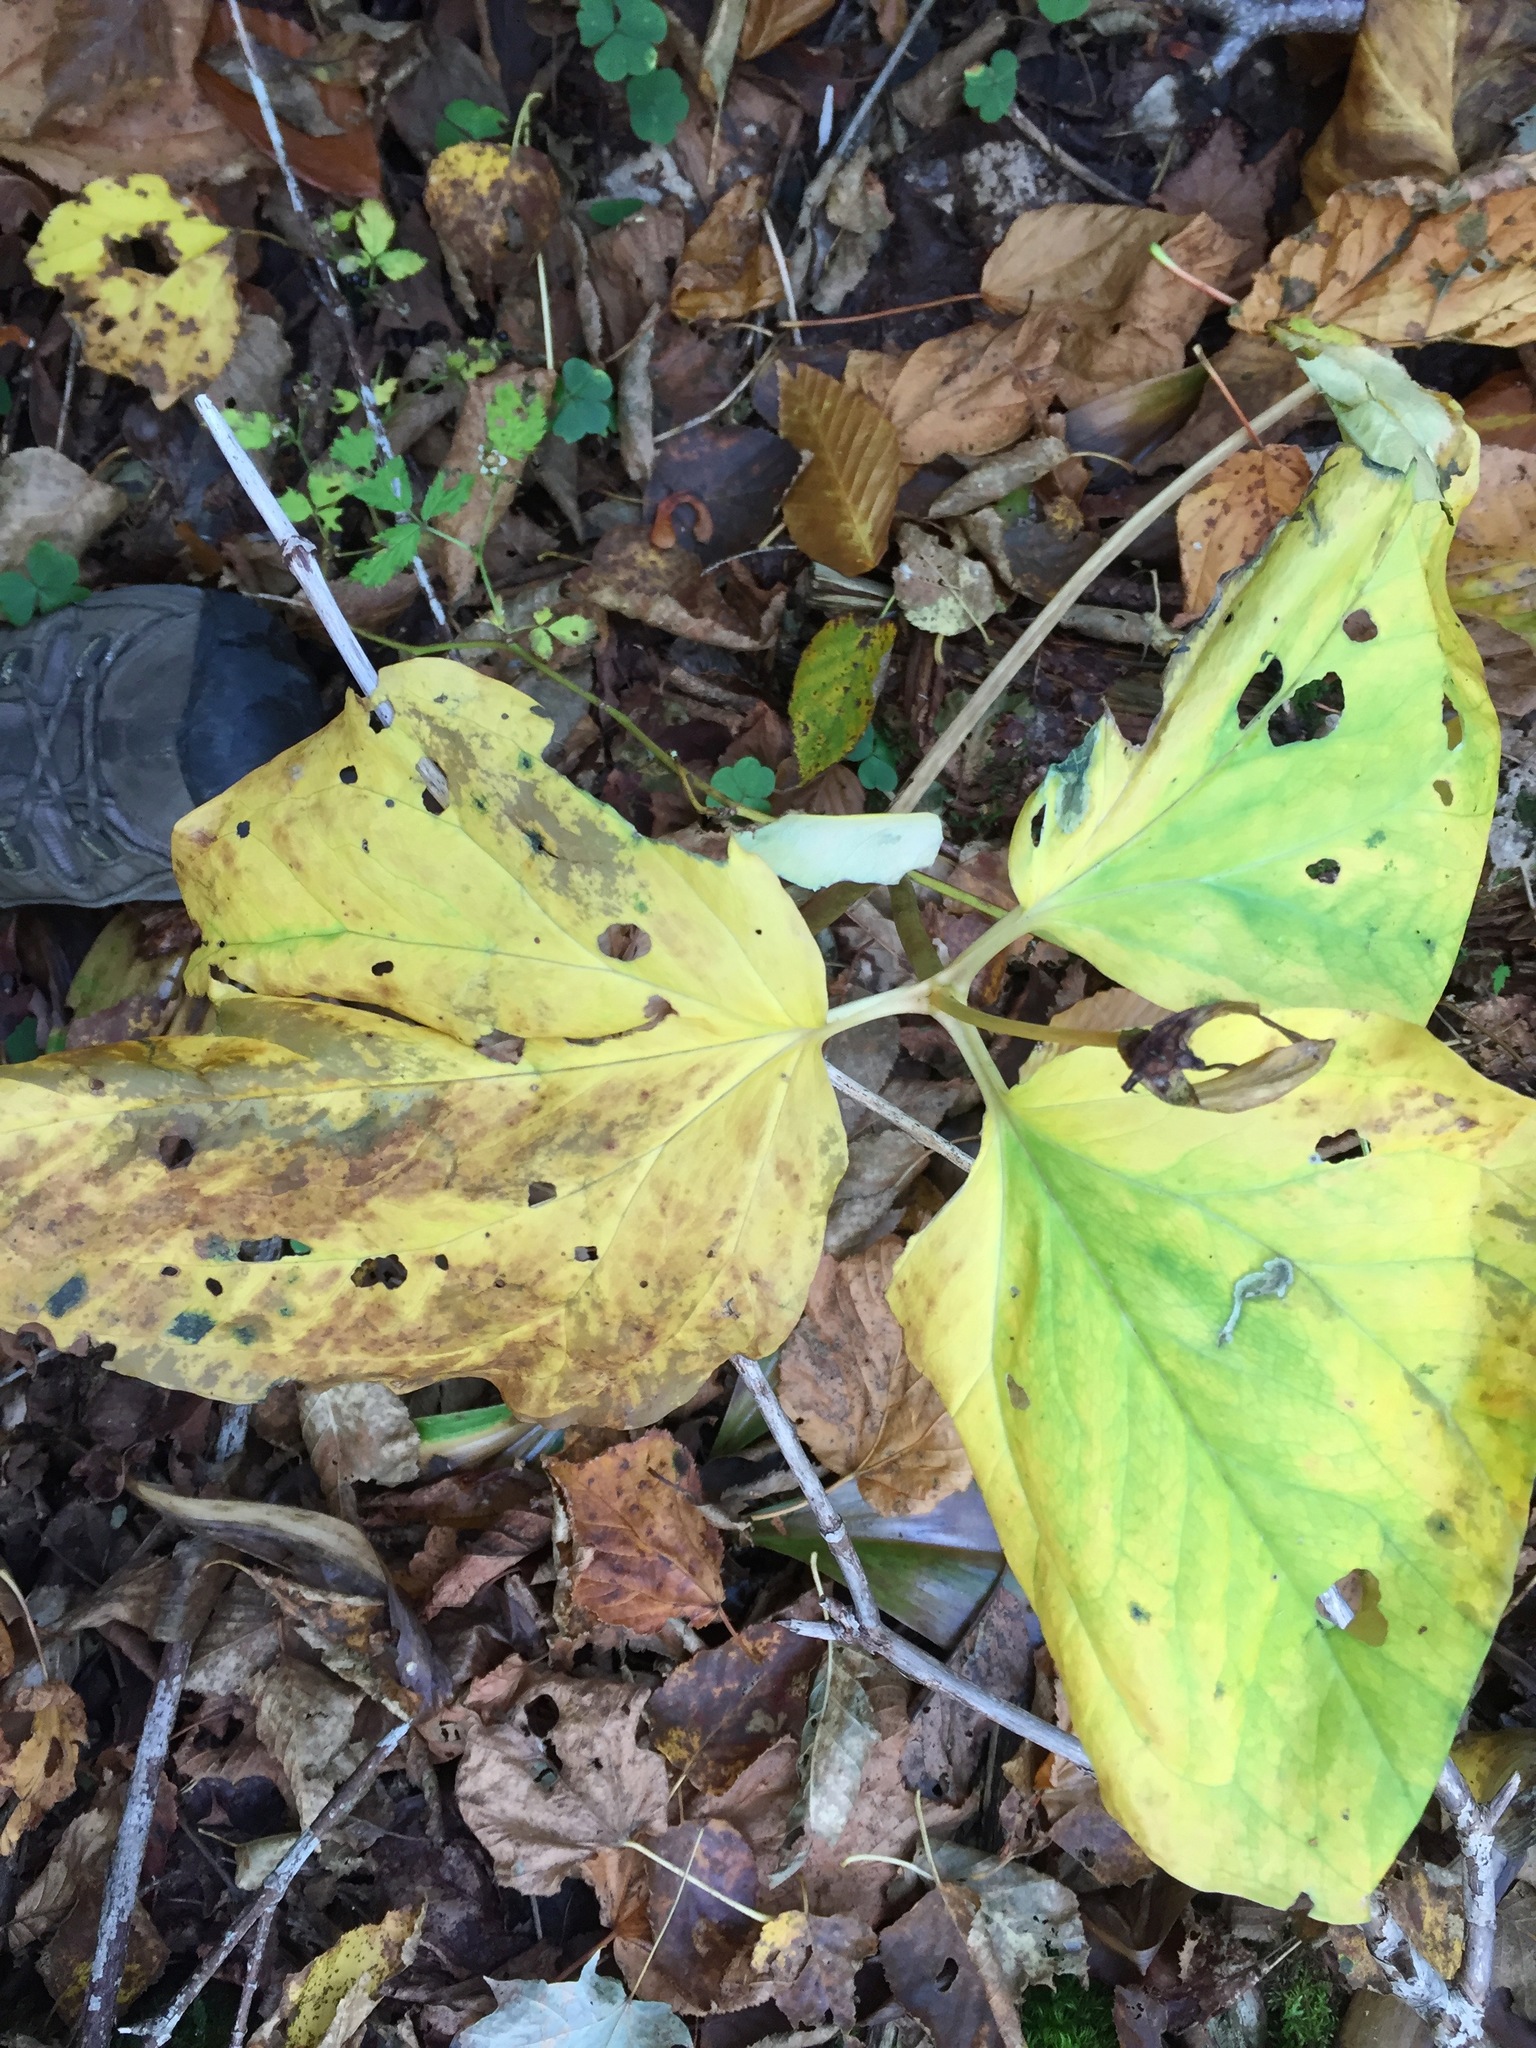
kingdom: Plantae
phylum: Tracheophyta
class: Liliopsida
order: Liliales
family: Melanthiaceae
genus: Trillium
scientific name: Trillium undulatum
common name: Paint trillium
